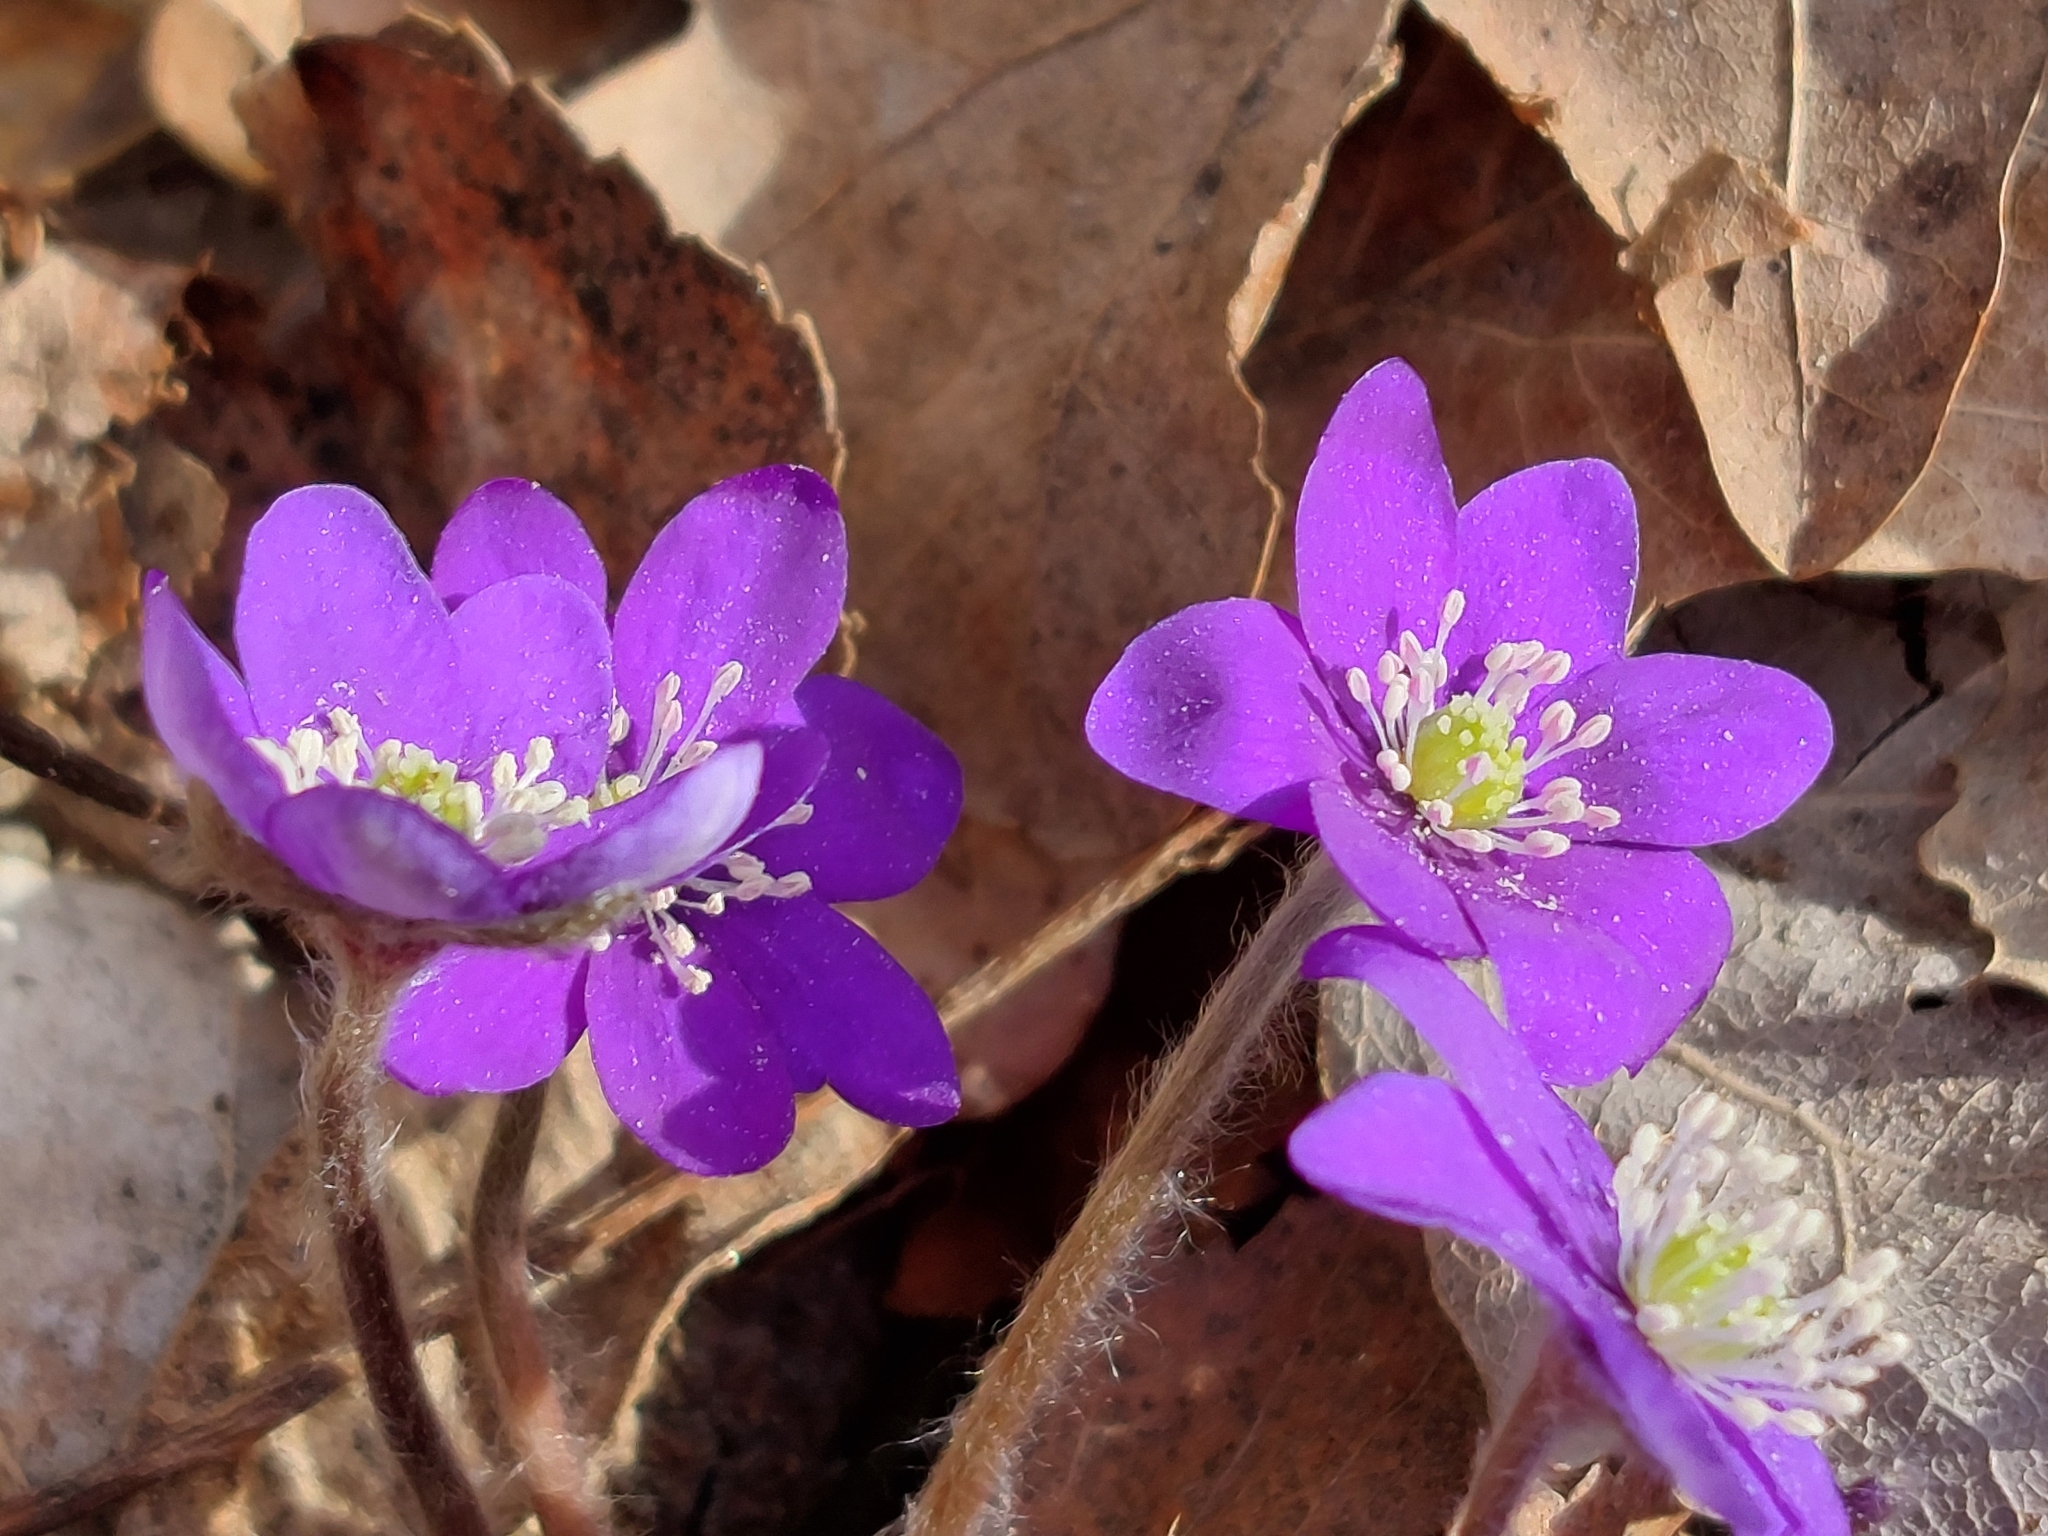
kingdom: Plantae
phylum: Tracheophyta
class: Magnoliopsida
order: Ranunculales
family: Ranunculaceae
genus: Hepatica
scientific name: Hepatica nobilis
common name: Liverleaf
